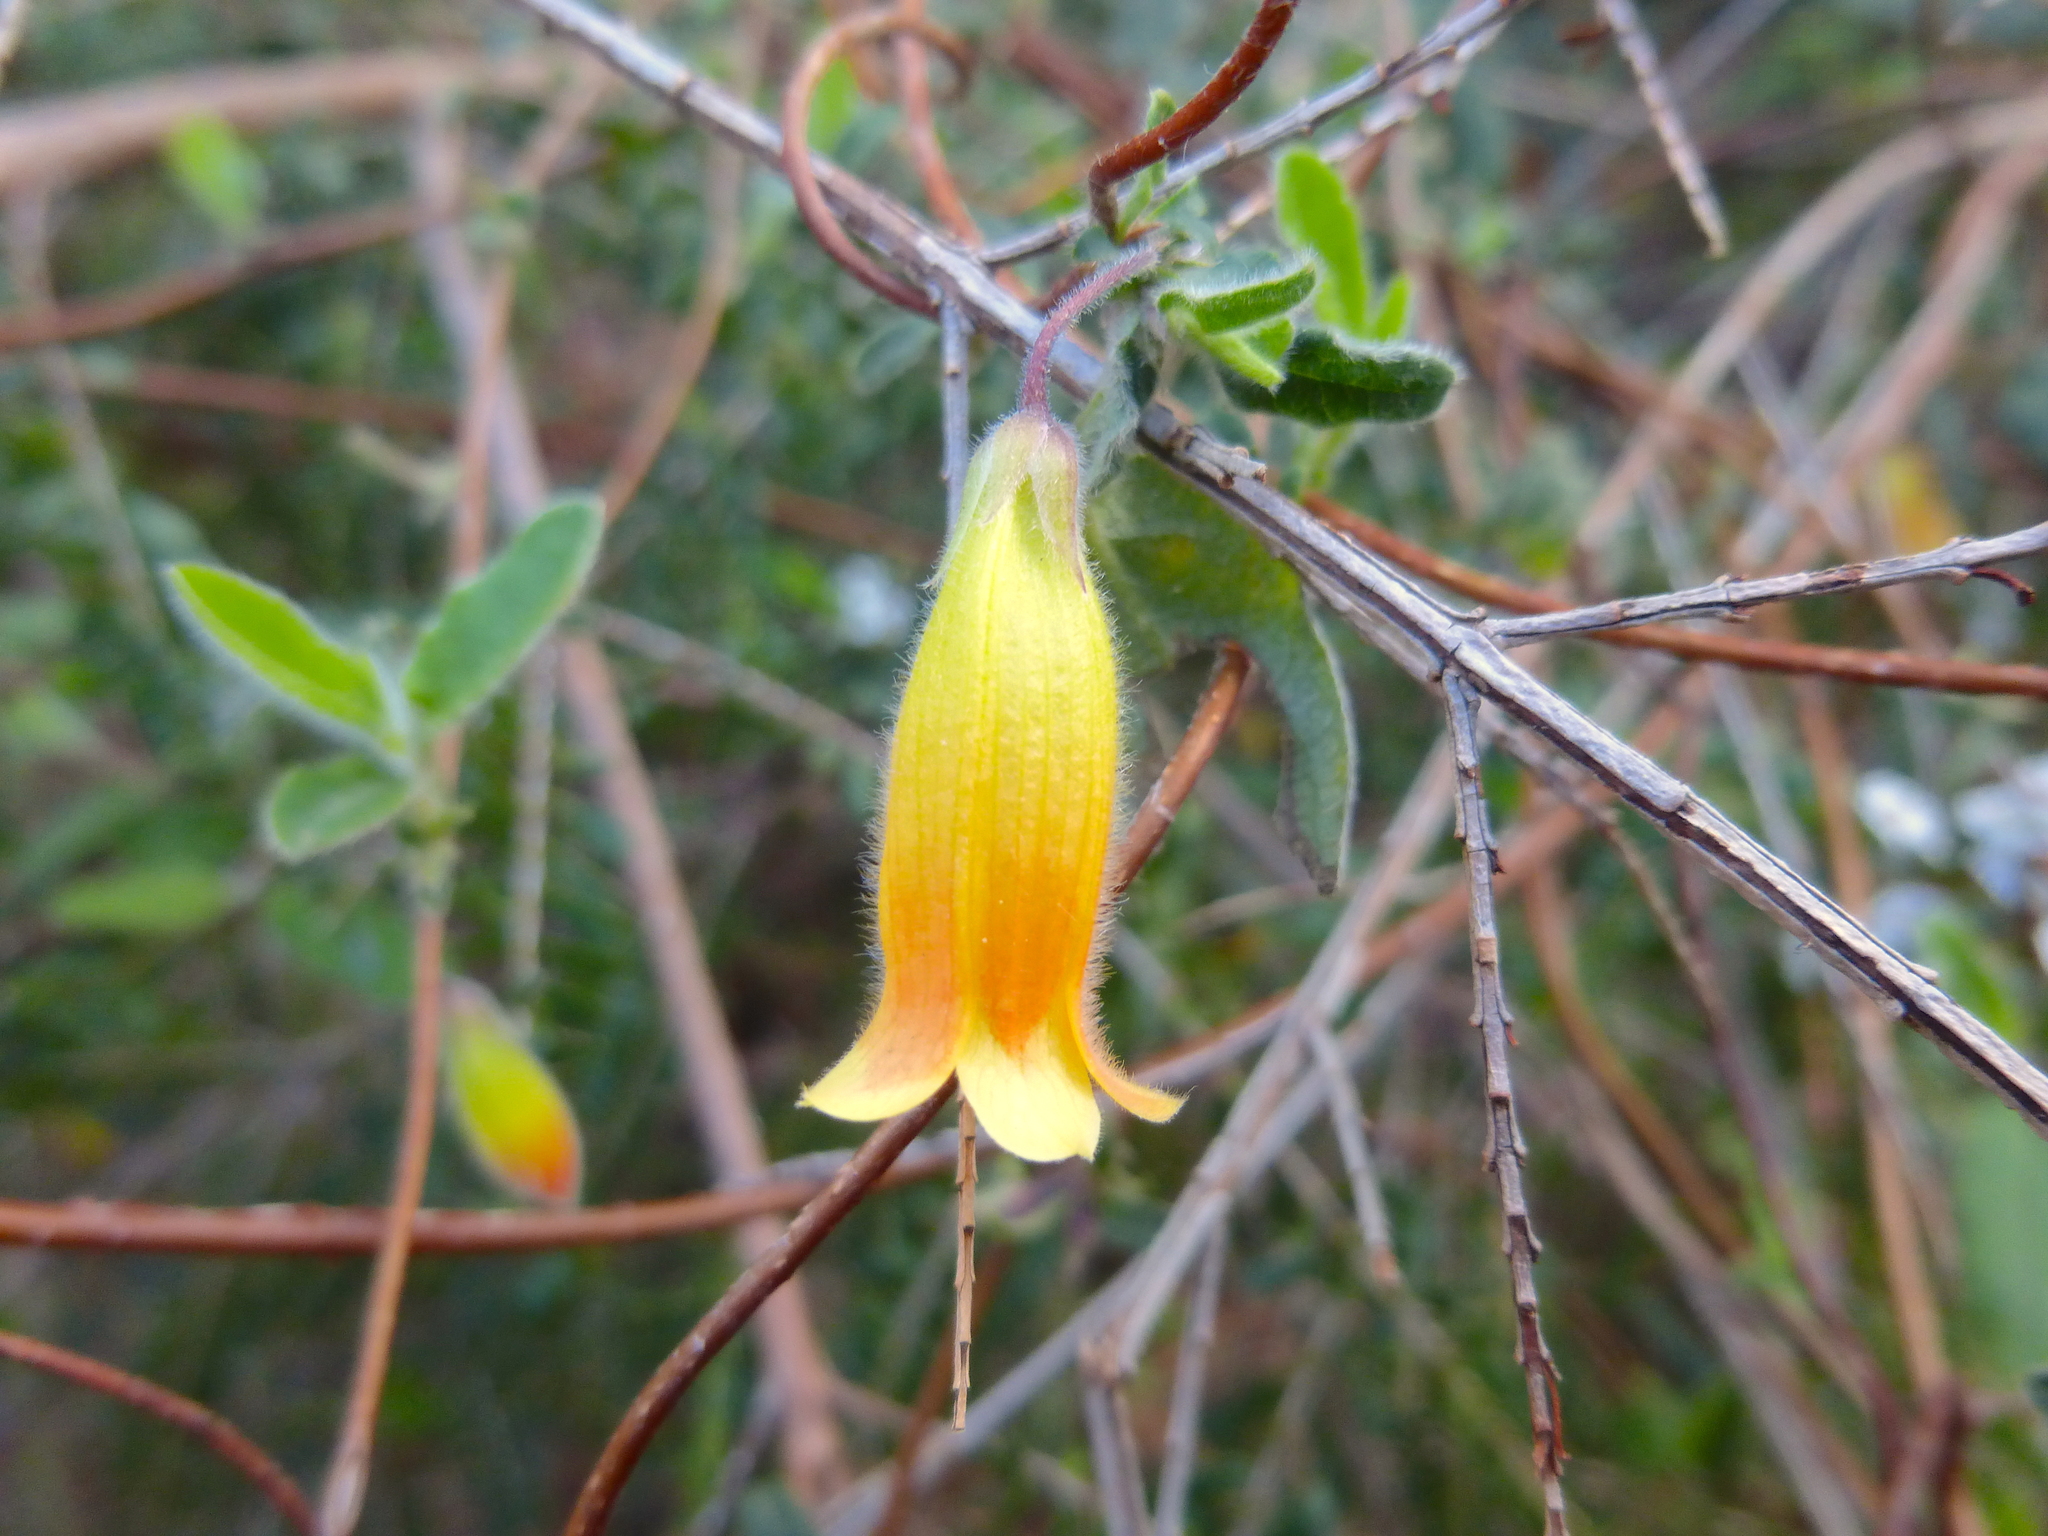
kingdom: Plantae
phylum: Tracheophyta
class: Magnoliopsida
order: Apiales
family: Pittosporaceae
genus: Marianthus
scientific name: Marianthus bignoniaceus
